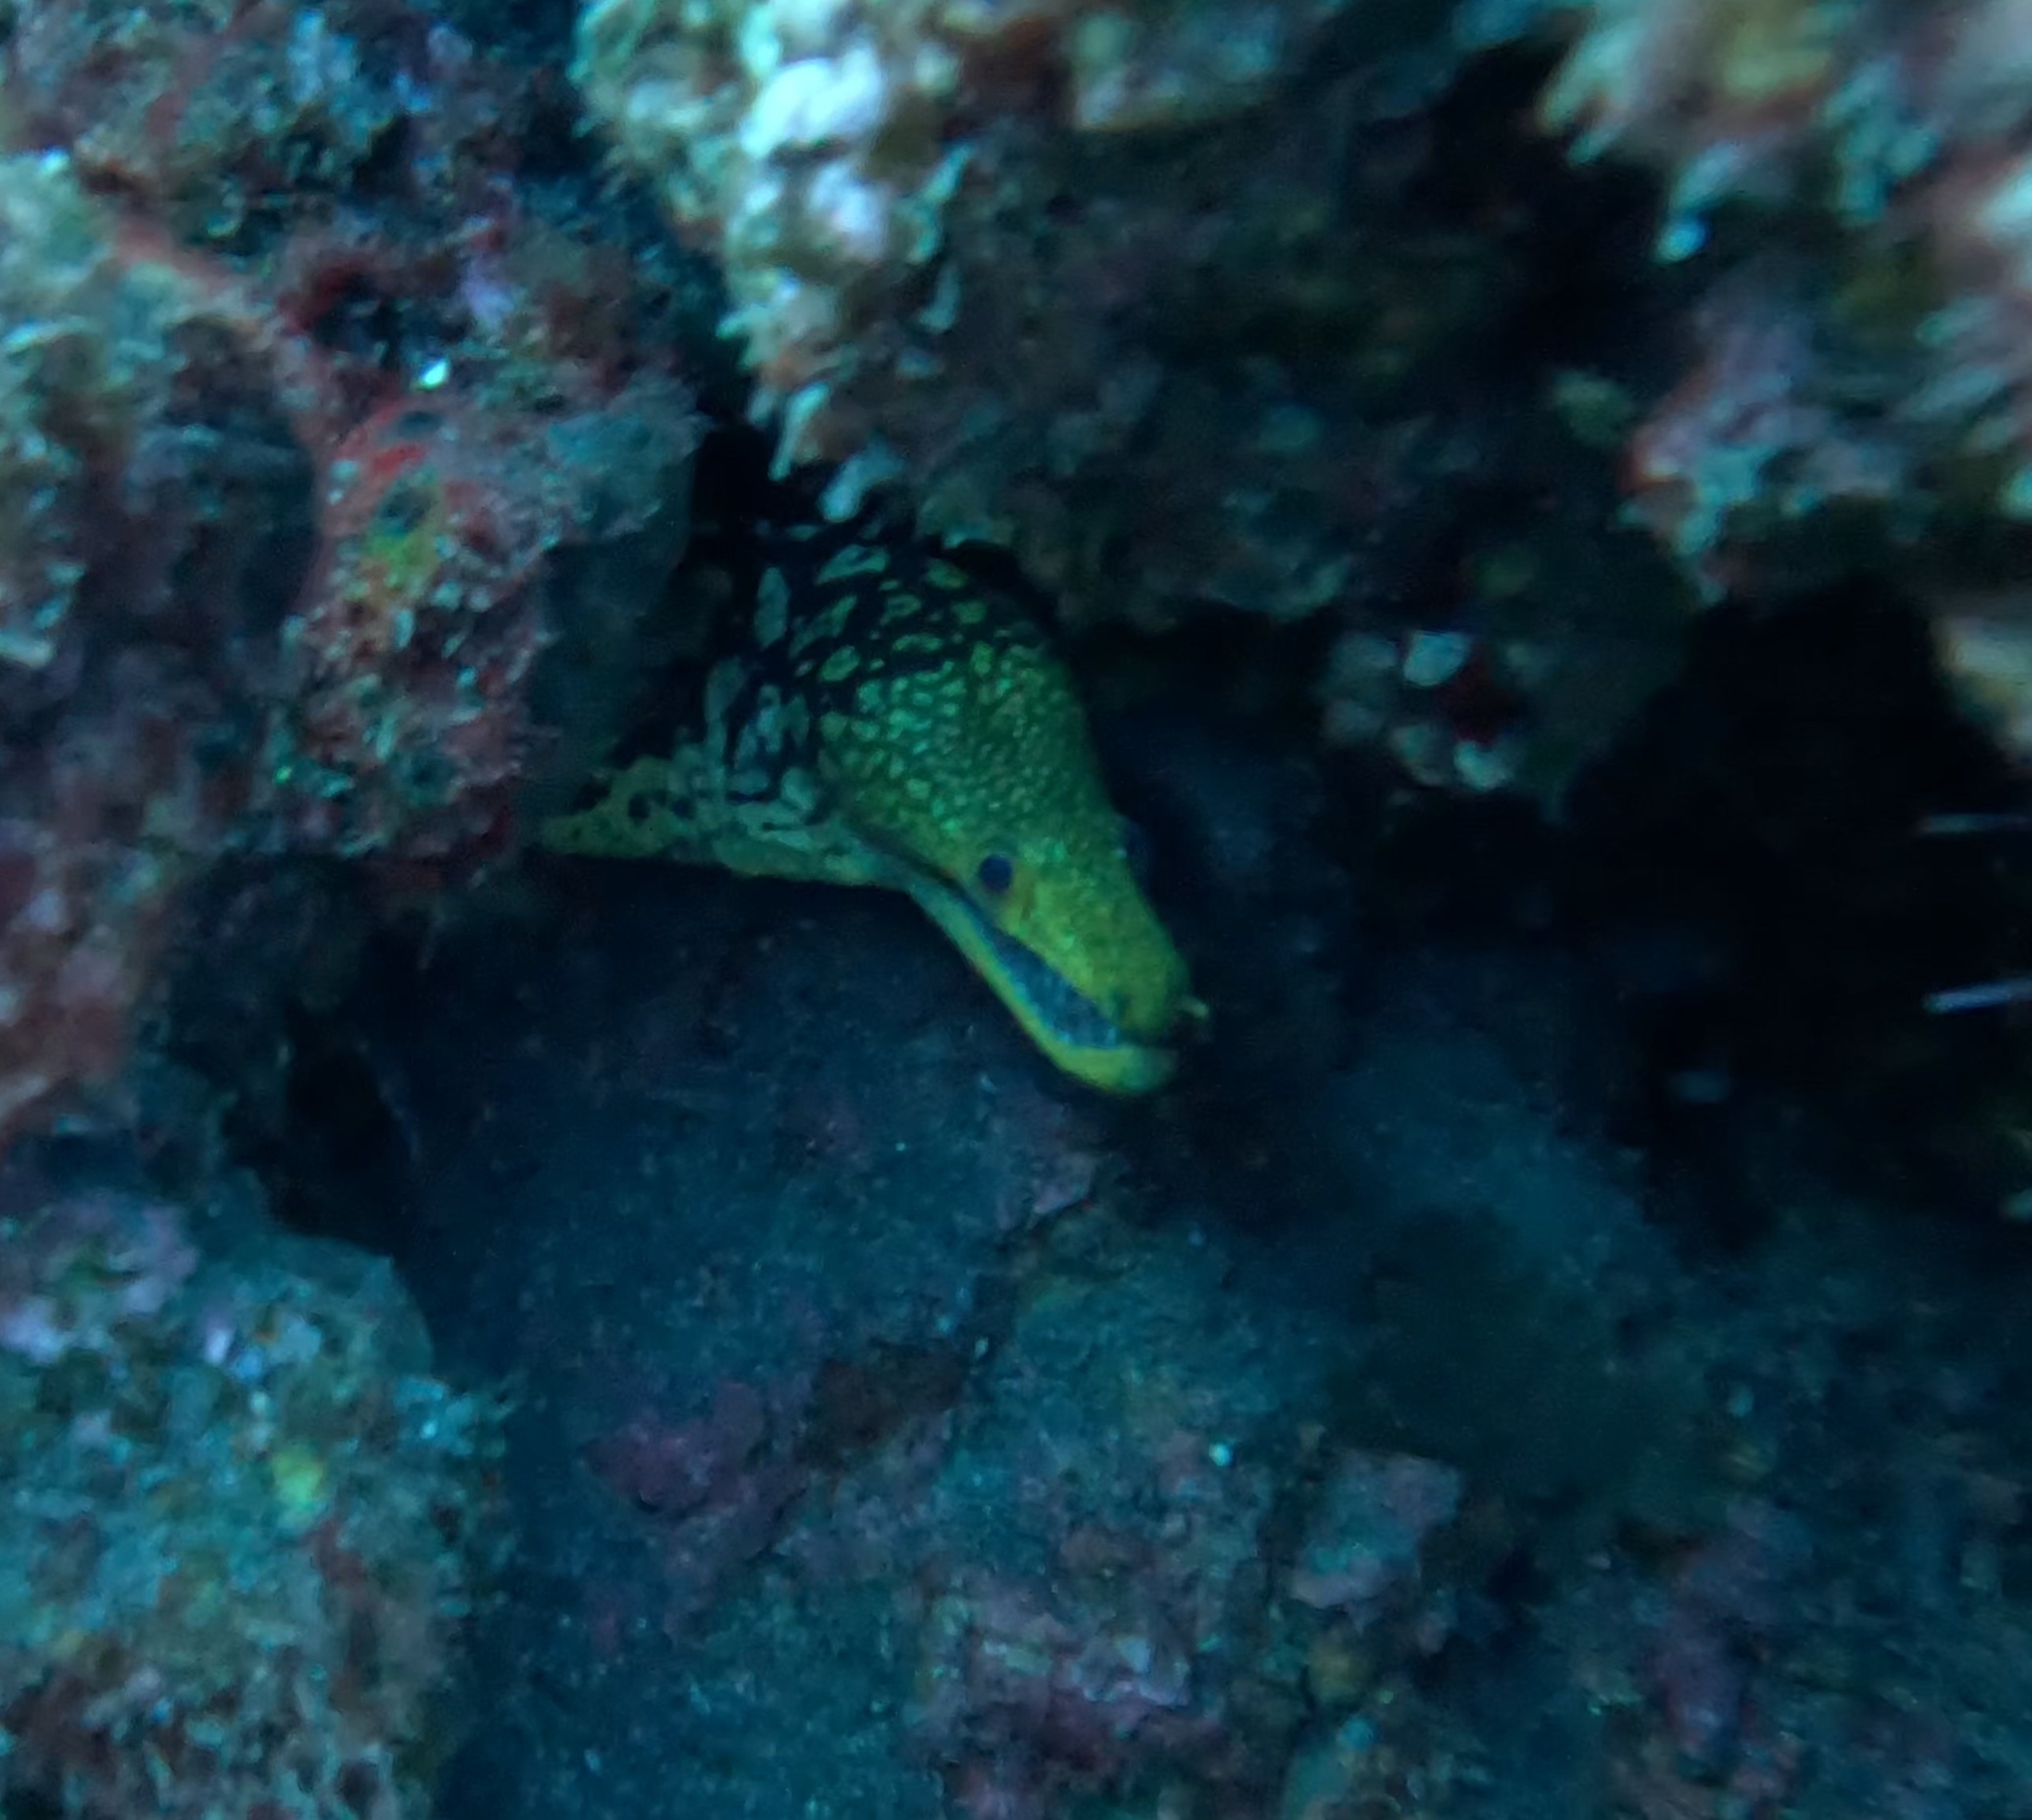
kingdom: Animalia
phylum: Chordata
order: Anguilliformes
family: Muraenidae
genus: Enchelycore
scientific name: Enchelycore anatina
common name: Fangtooth moray
